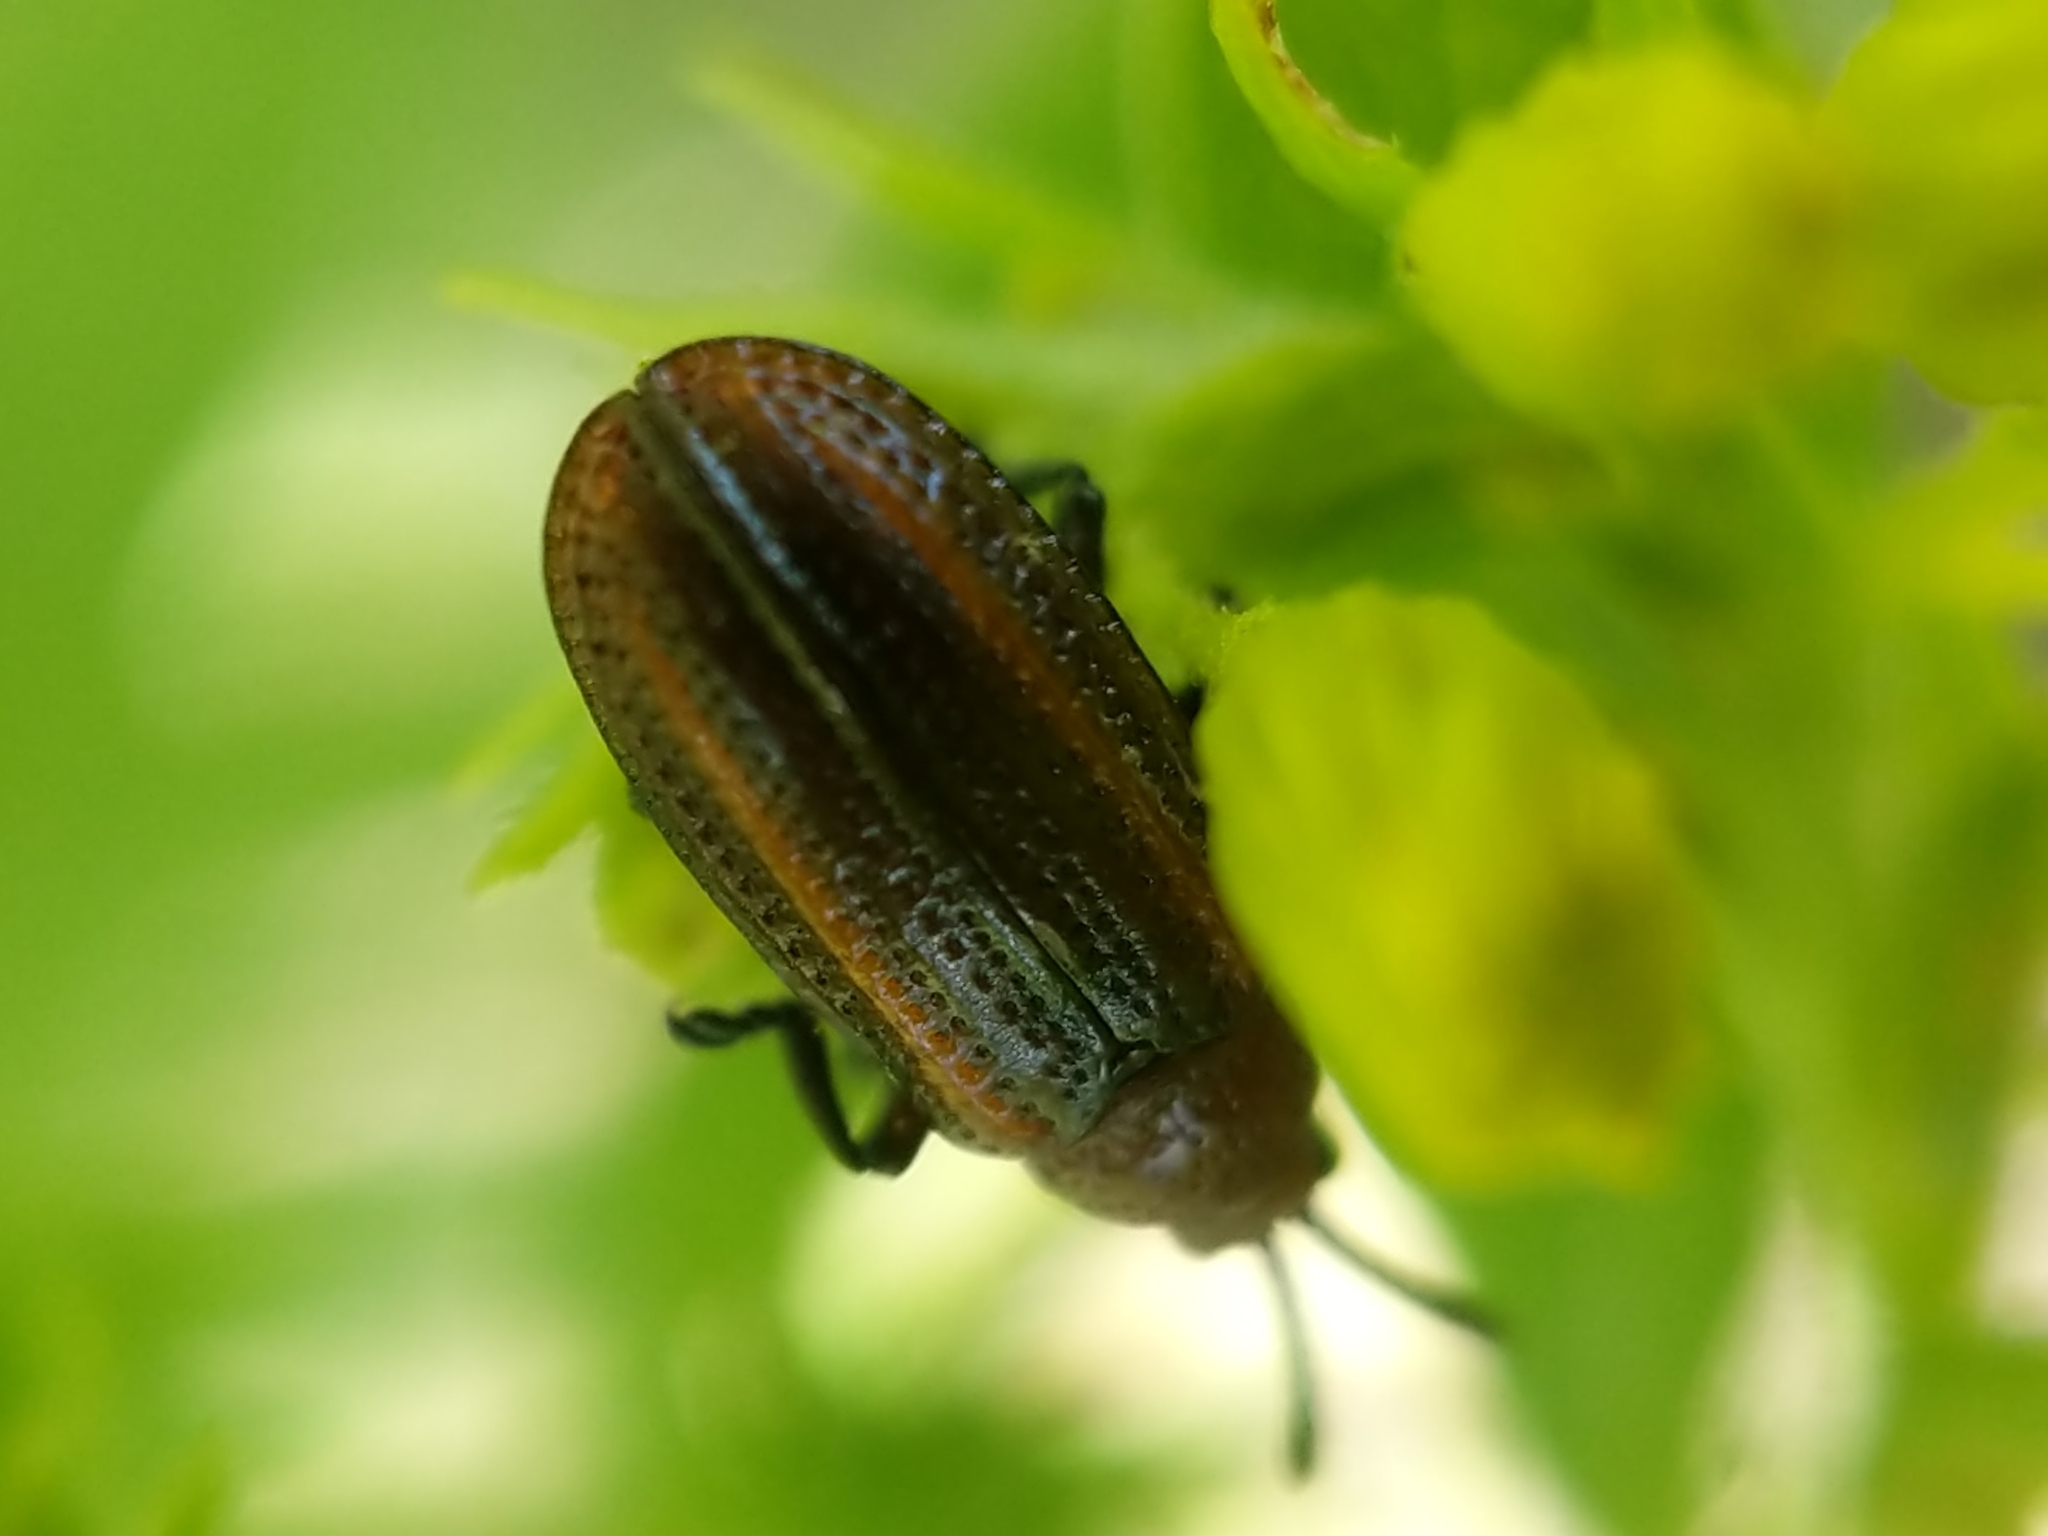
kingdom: Animalia
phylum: Arthropoda
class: Insecta
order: Coleoptera
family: Chrysomelidae
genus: Microrhopala
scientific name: Microrhopala vittata
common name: Goldenrod leaf miner beetle
